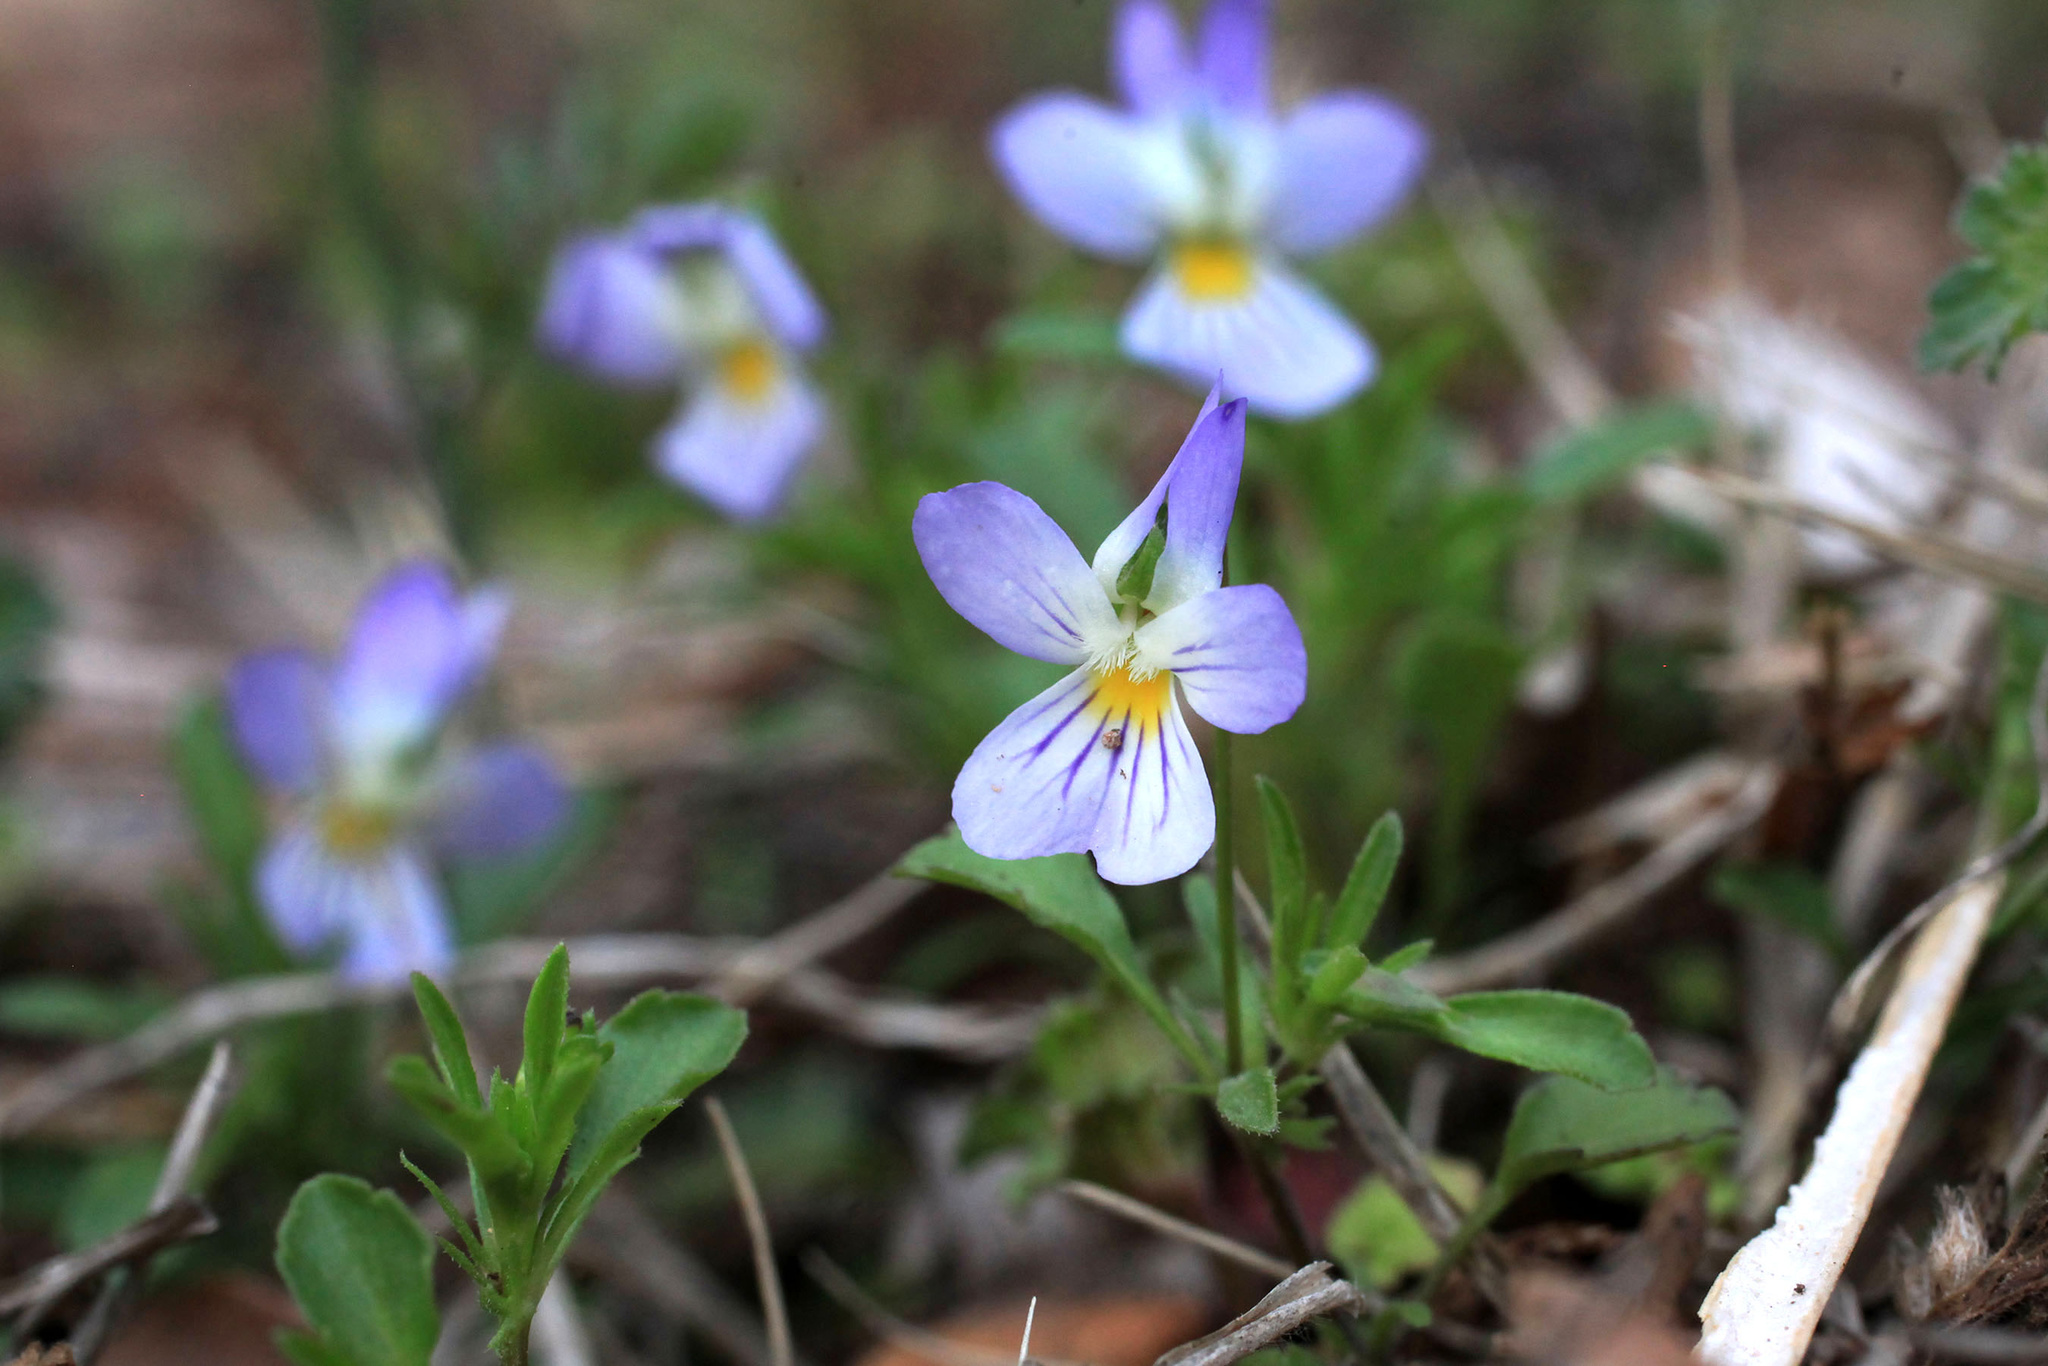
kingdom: Plantae
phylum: Tracheophyta
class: Magnoliopsida
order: Malpighiales
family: Violaceae
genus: Viola
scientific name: Viola rafinesquei
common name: American field pansy
